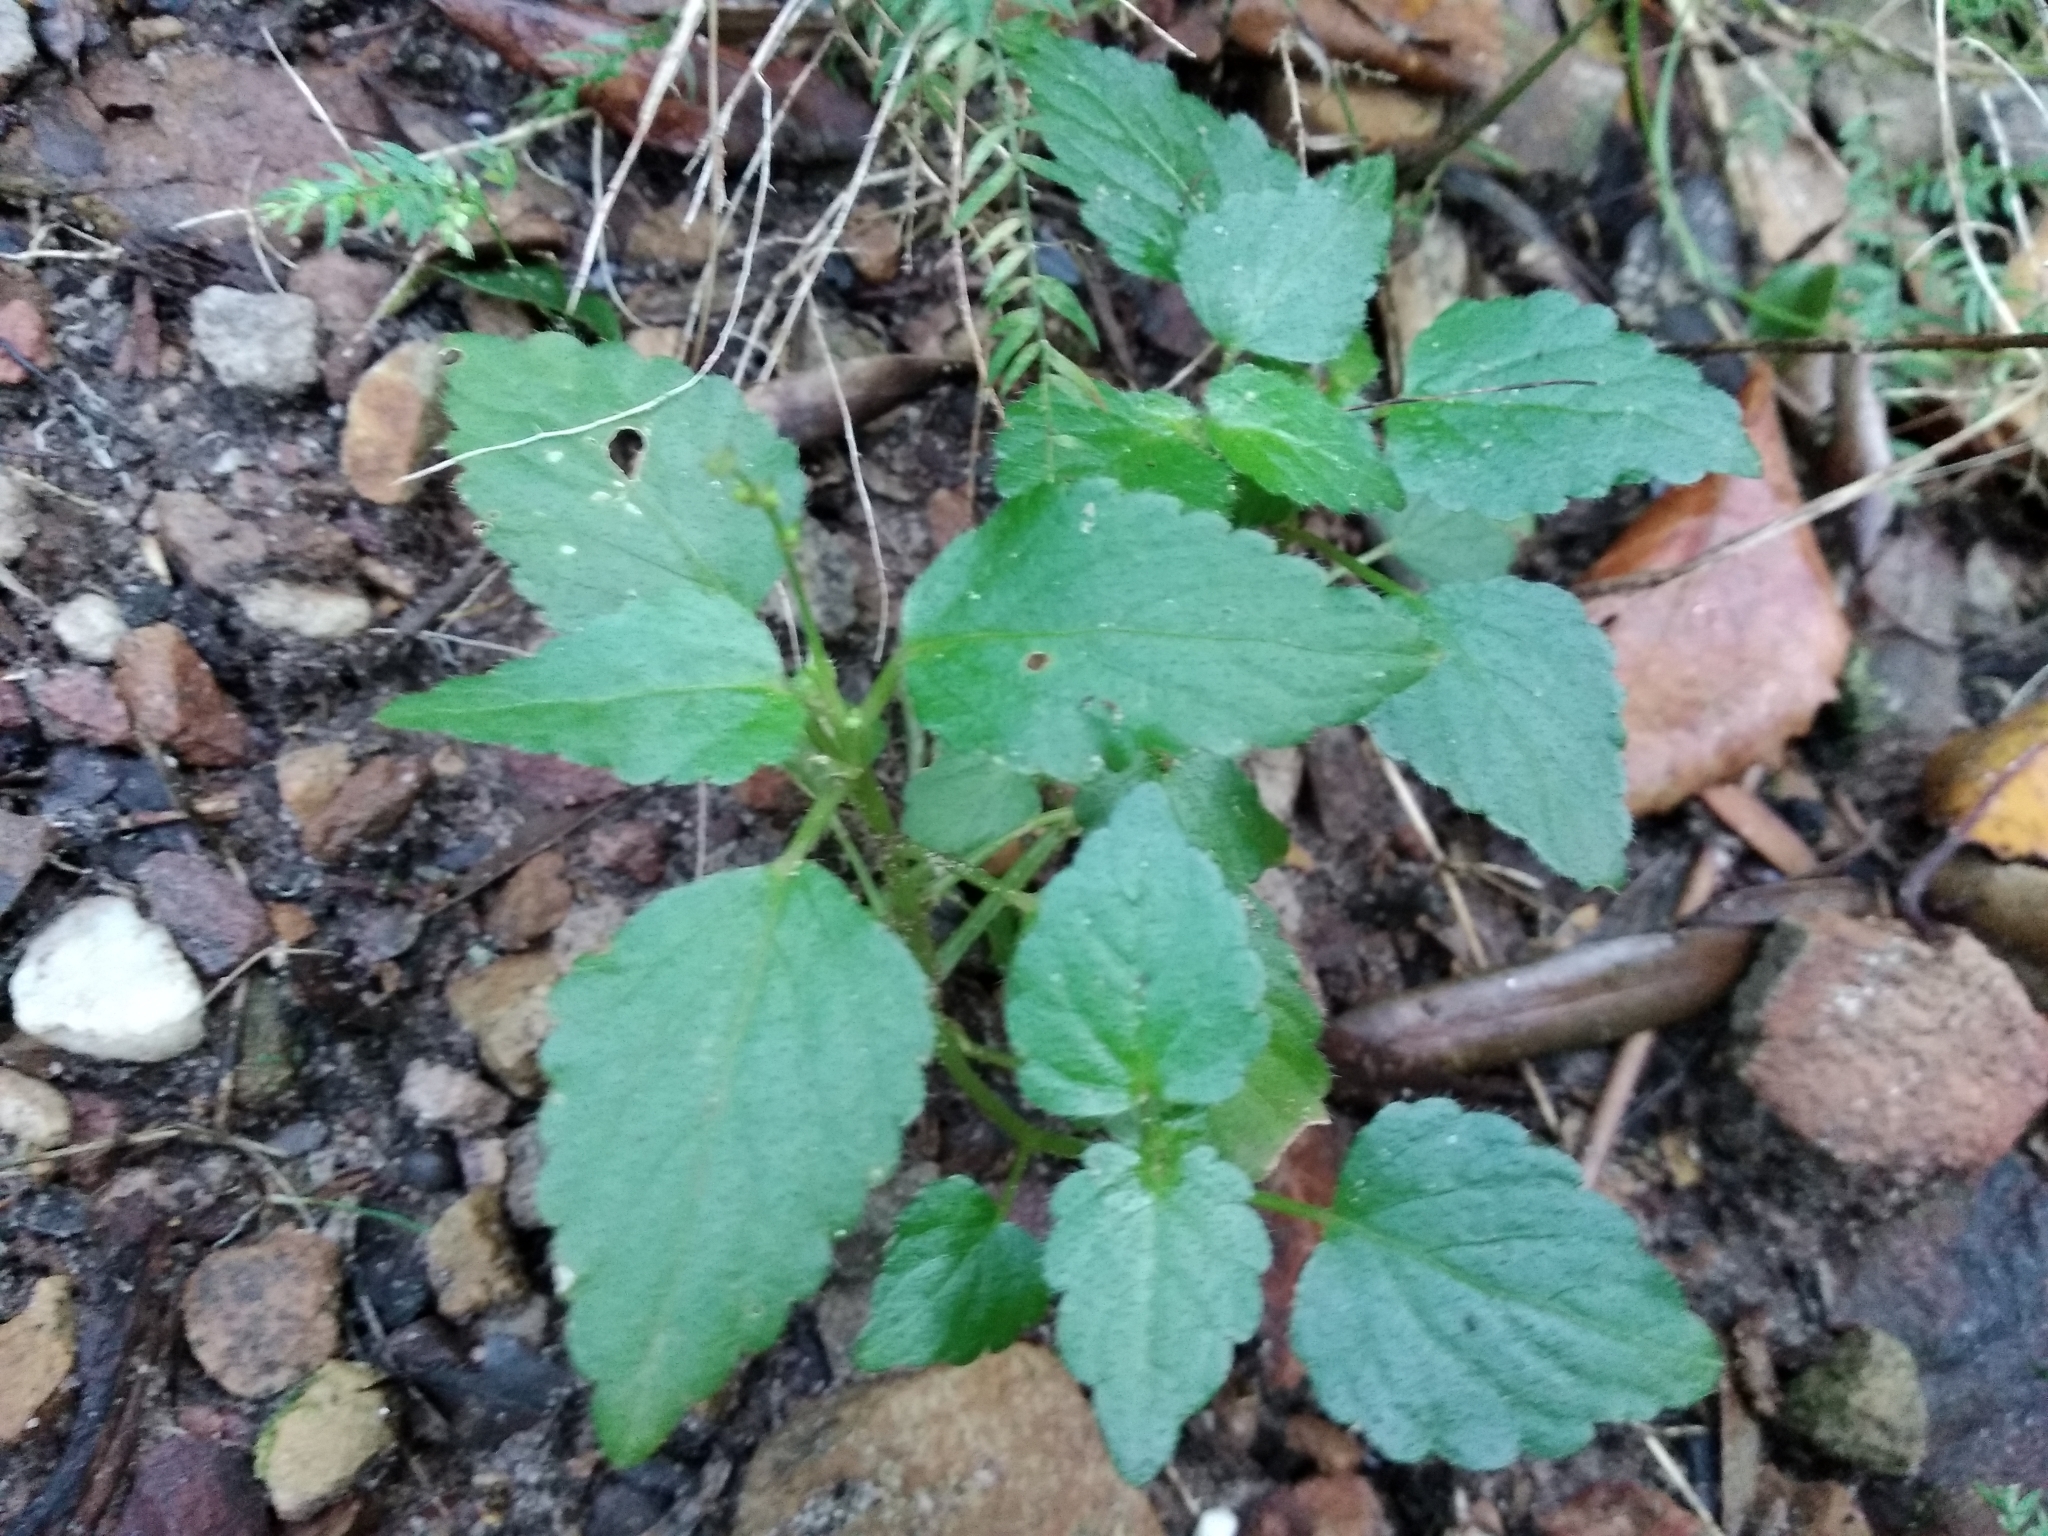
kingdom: Plantae
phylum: Tracheophyta
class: Magnoliopsida
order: Malpighiales
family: Euphorbiaceae
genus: Leidesia
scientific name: Leidesia procumbens
